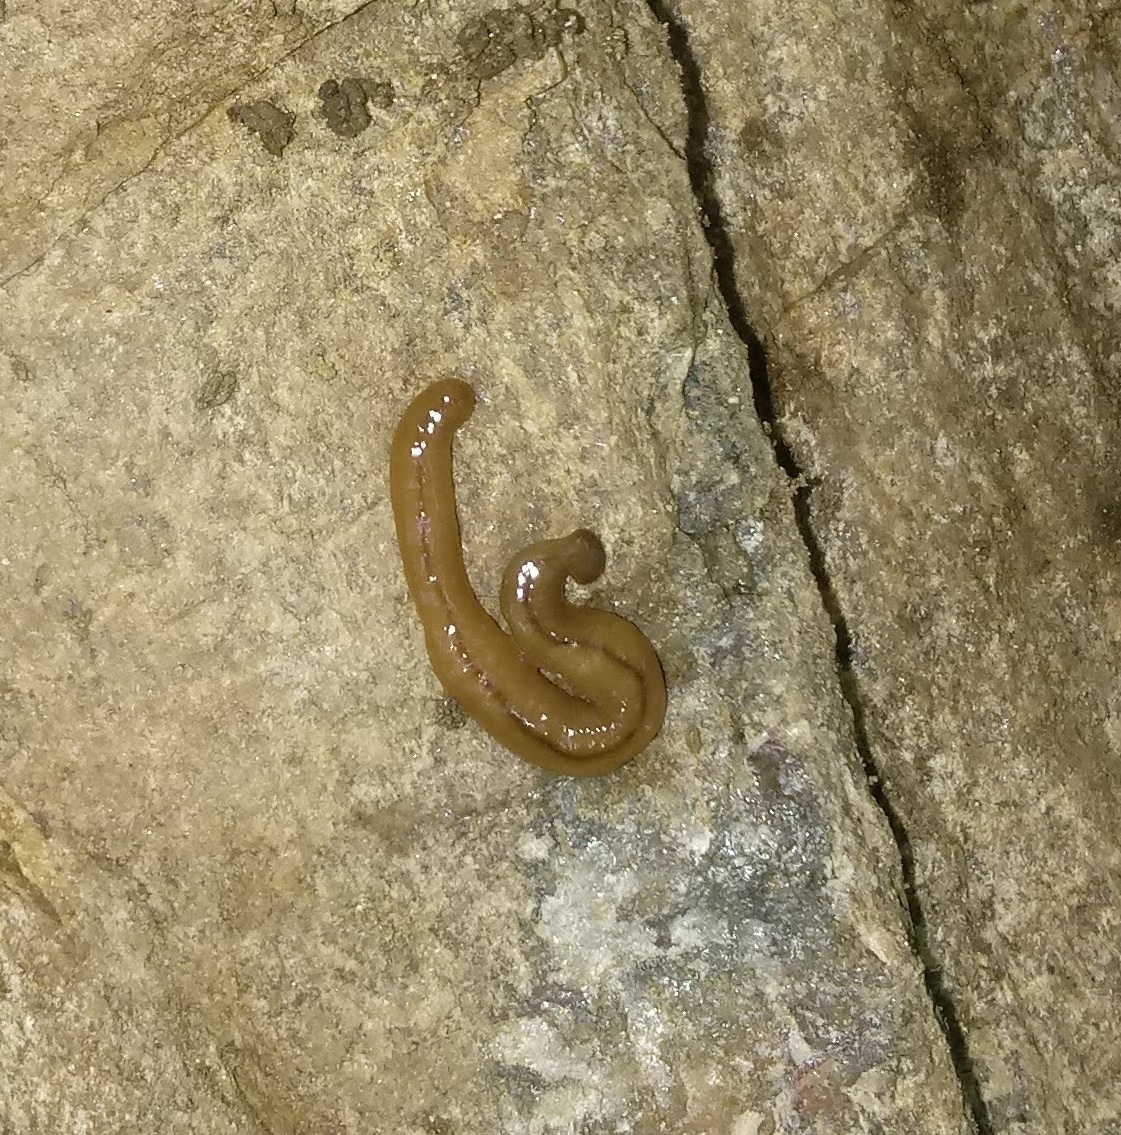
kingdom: Animalia
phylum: Platyhelminthes
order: Tricladida
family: Geoplanidae
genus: Bipalium
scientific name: Bipalium adventitium
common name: Land planarian
